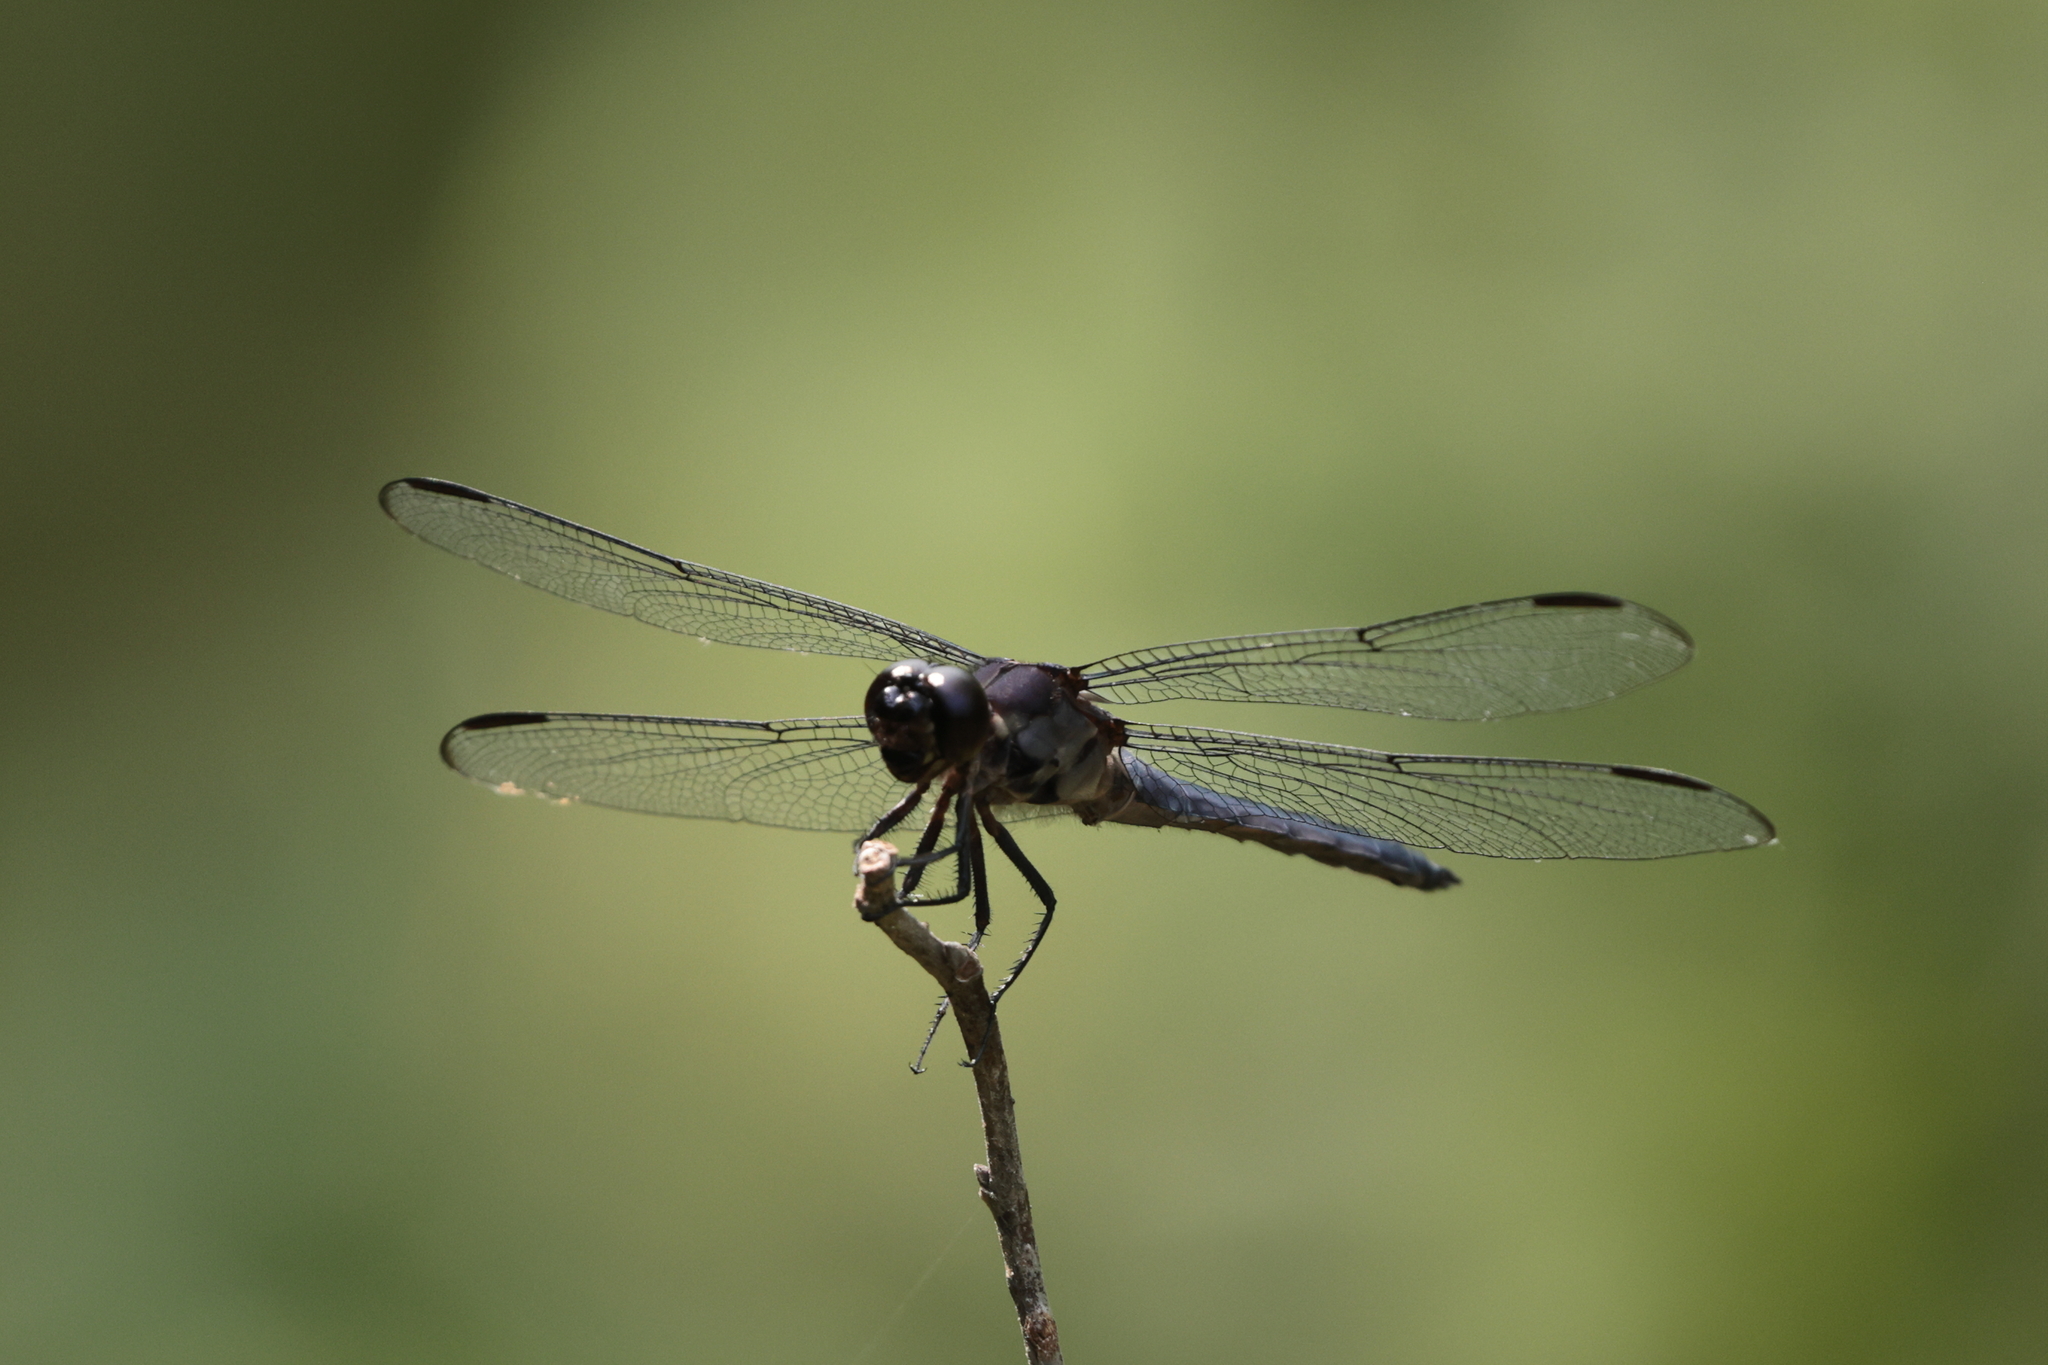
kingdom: Animalia
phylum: Arthropoda
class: Insecta
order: Odonata
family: Libellulidae
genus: Libellula
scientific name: Libellula incesta
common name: Slaty skimmer
